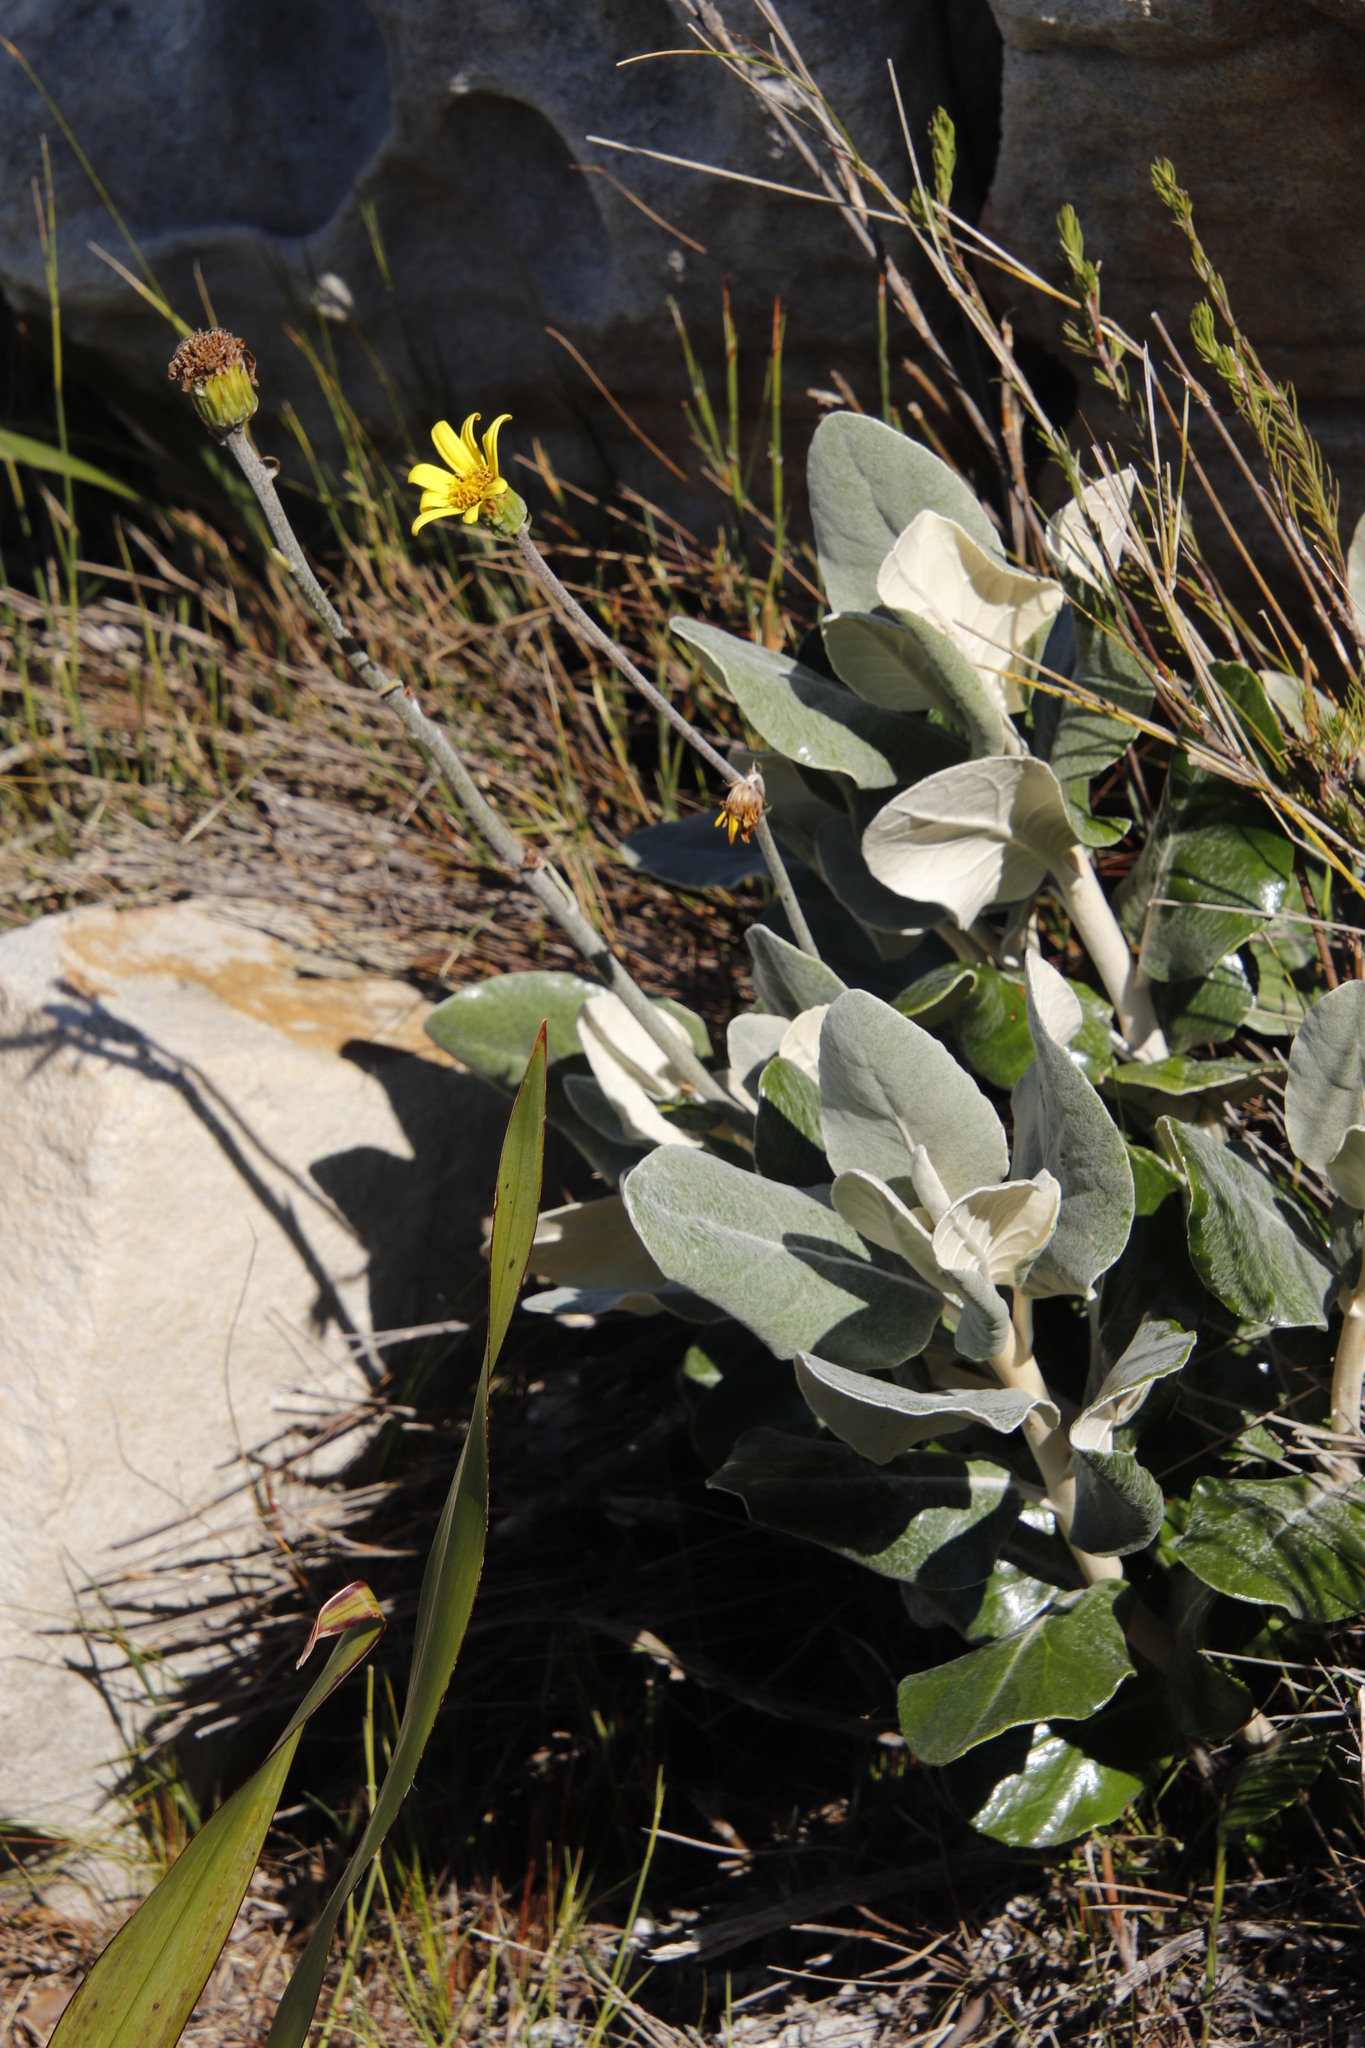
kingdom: Plantae
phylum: Tracheophyta
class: Magnoliopsida
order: Asterales
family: Asteraceae
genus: Capelio
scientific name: Capelio tabularis
